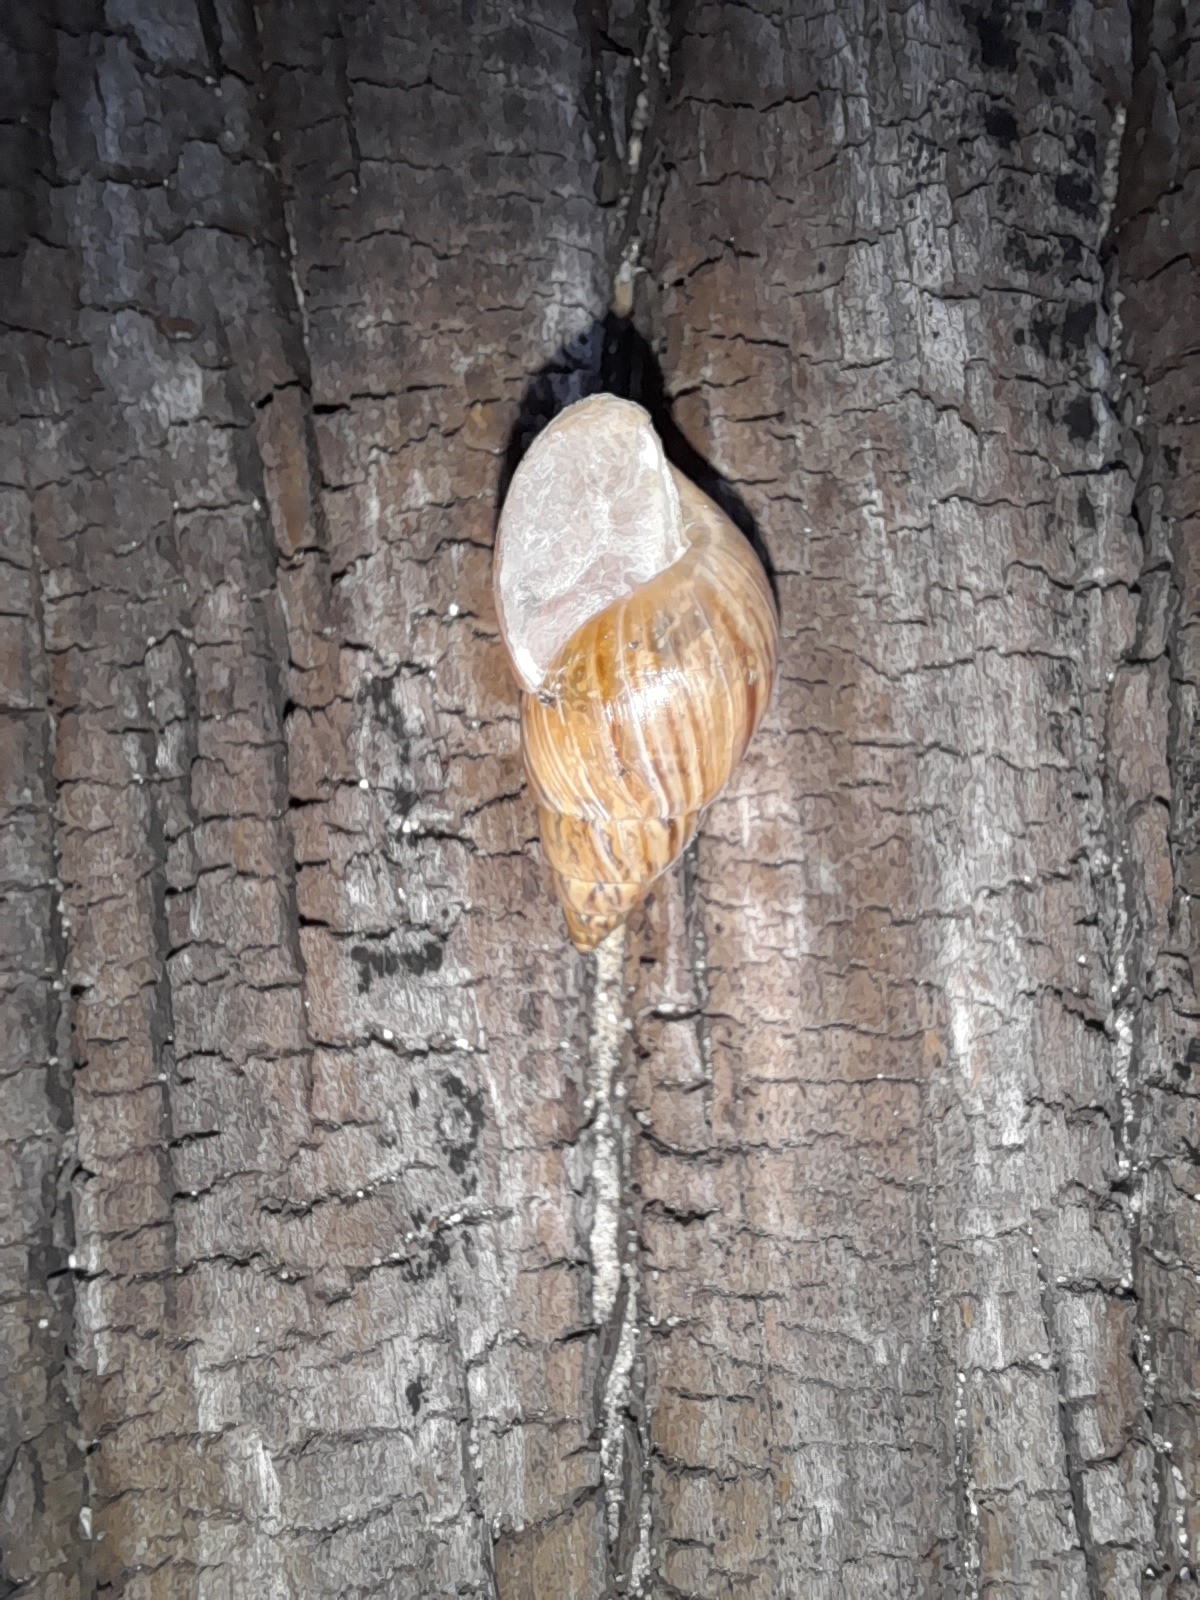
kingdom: Animalia
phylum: Mollusca
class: Gastropoda
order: Stylommatophora
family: Bulimulidae
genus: Bulimulus
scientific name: Bulimulus bonariensis
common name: Snail
